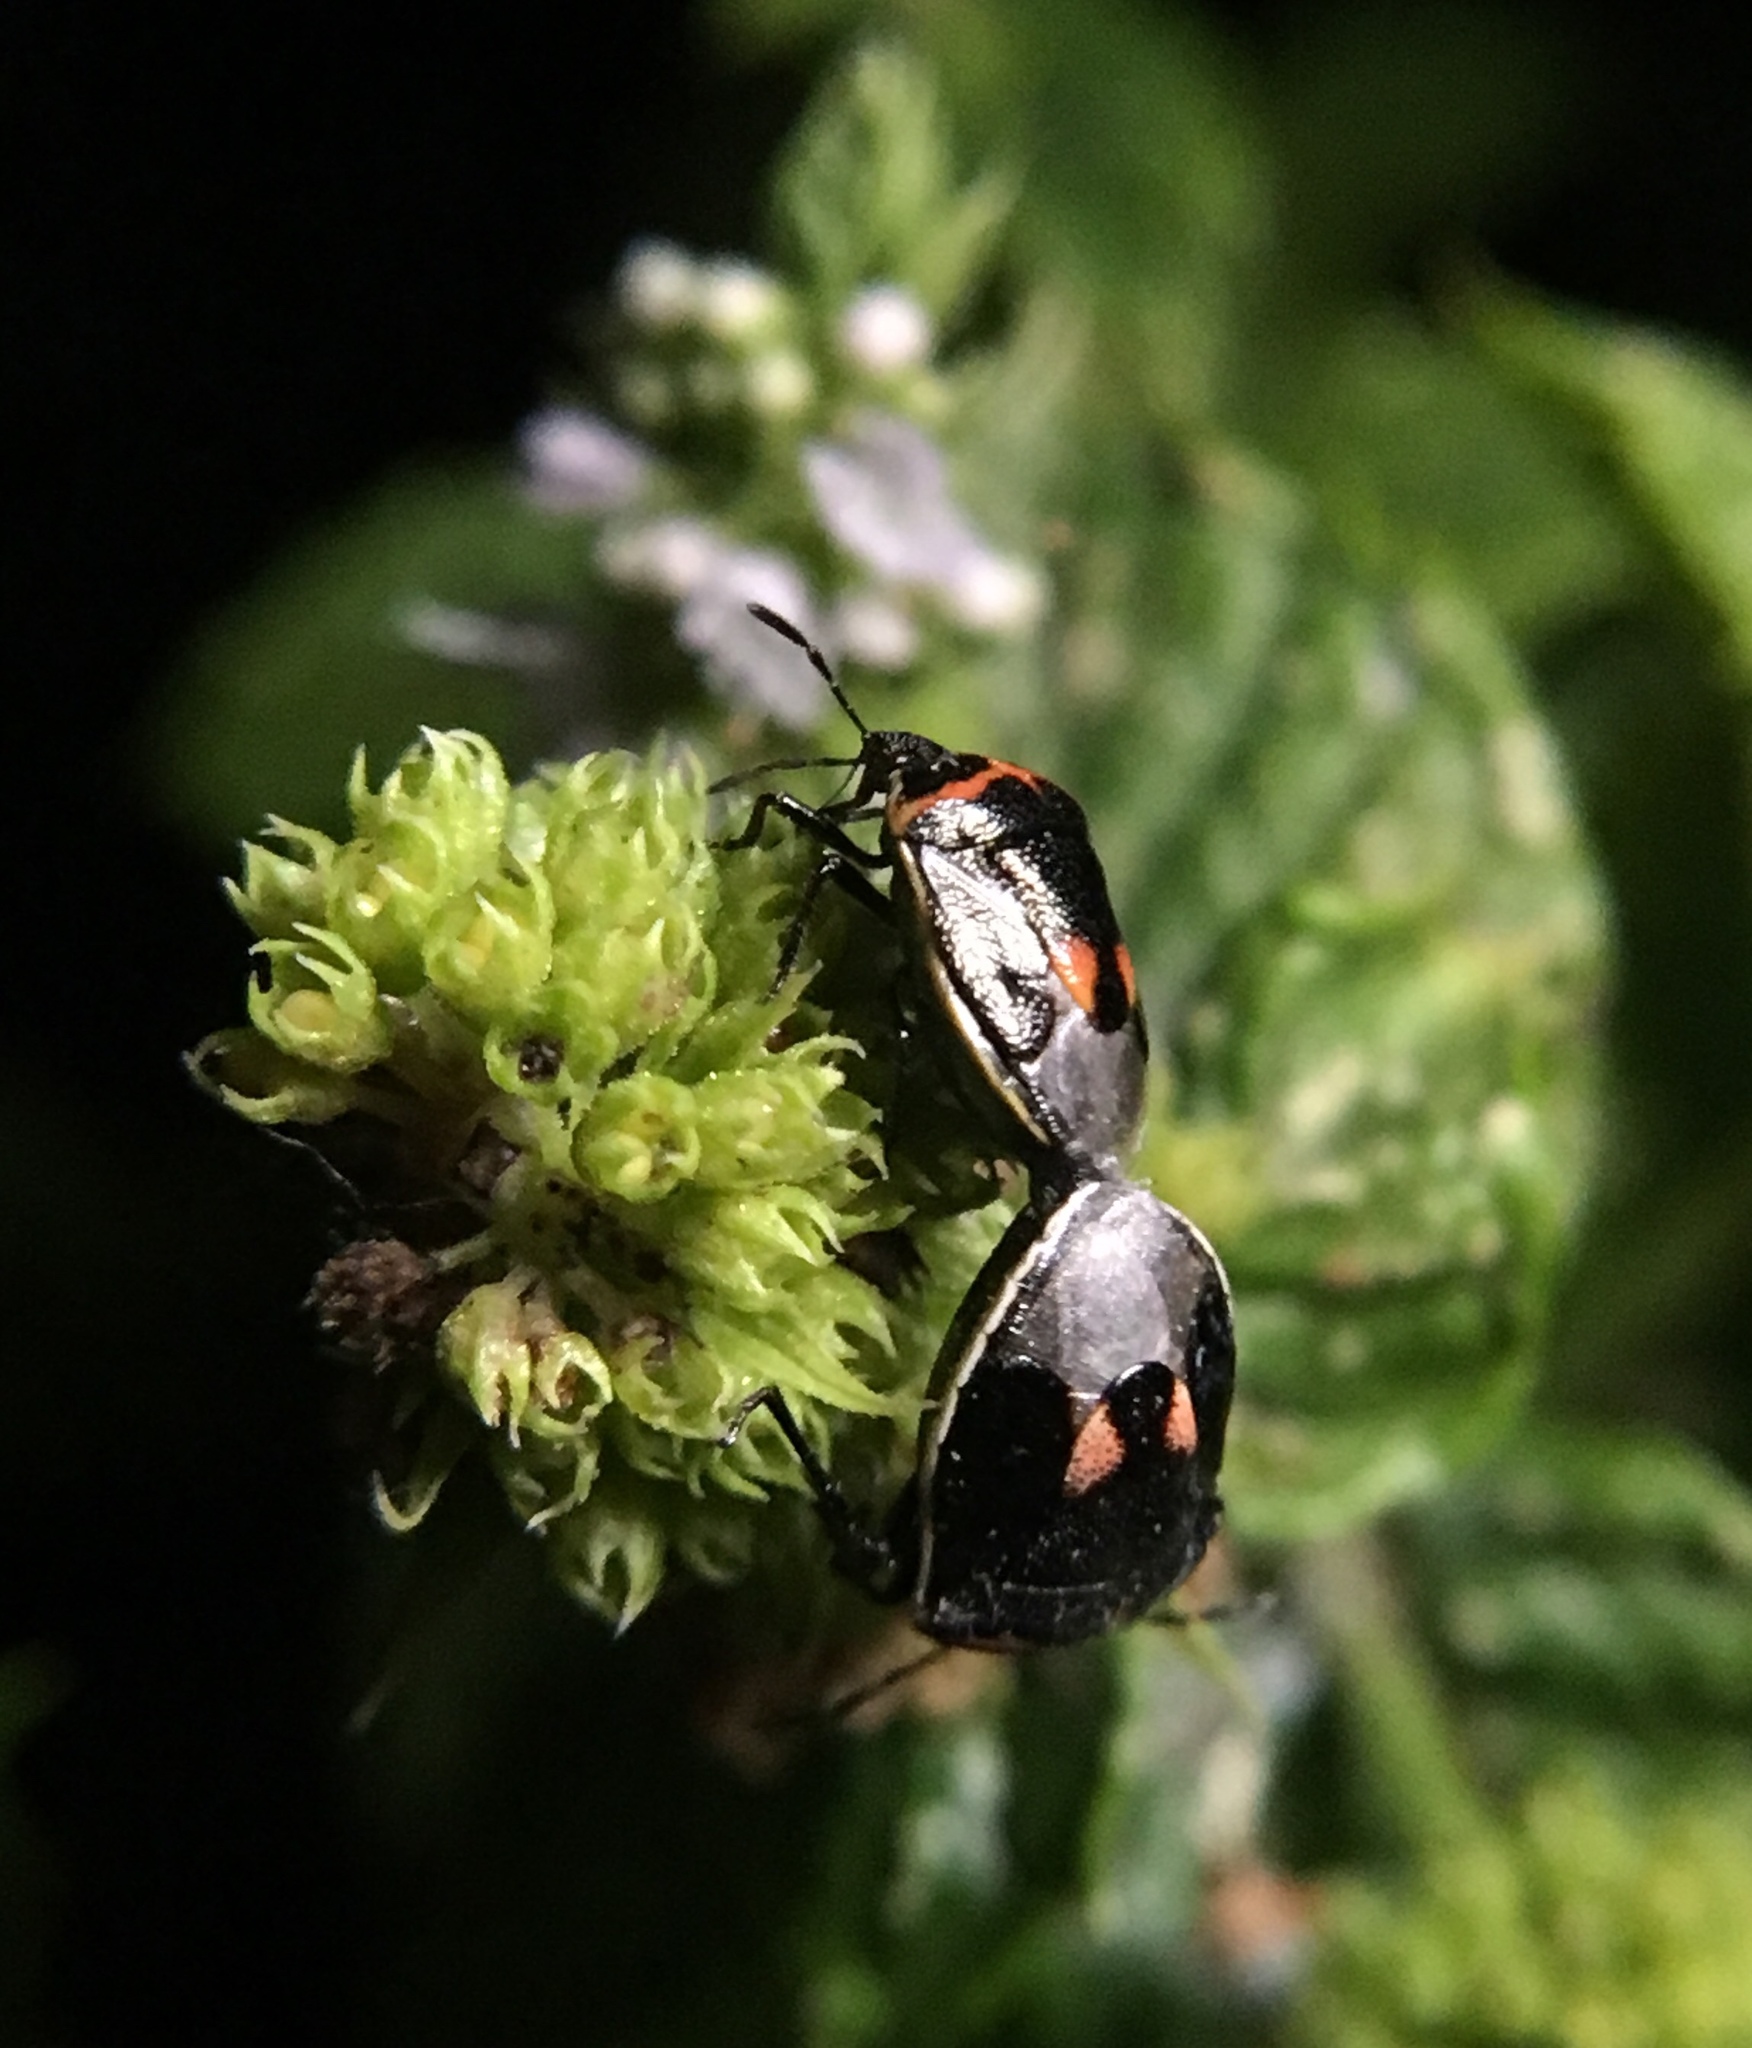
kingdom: Animalia
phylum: Arthropoda
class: Insecta
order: Hemiptera
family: Pentatomidae
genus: Cosmopepla
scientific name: Cosmopepla lintneriana
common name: Twice-stabbed stink bug
